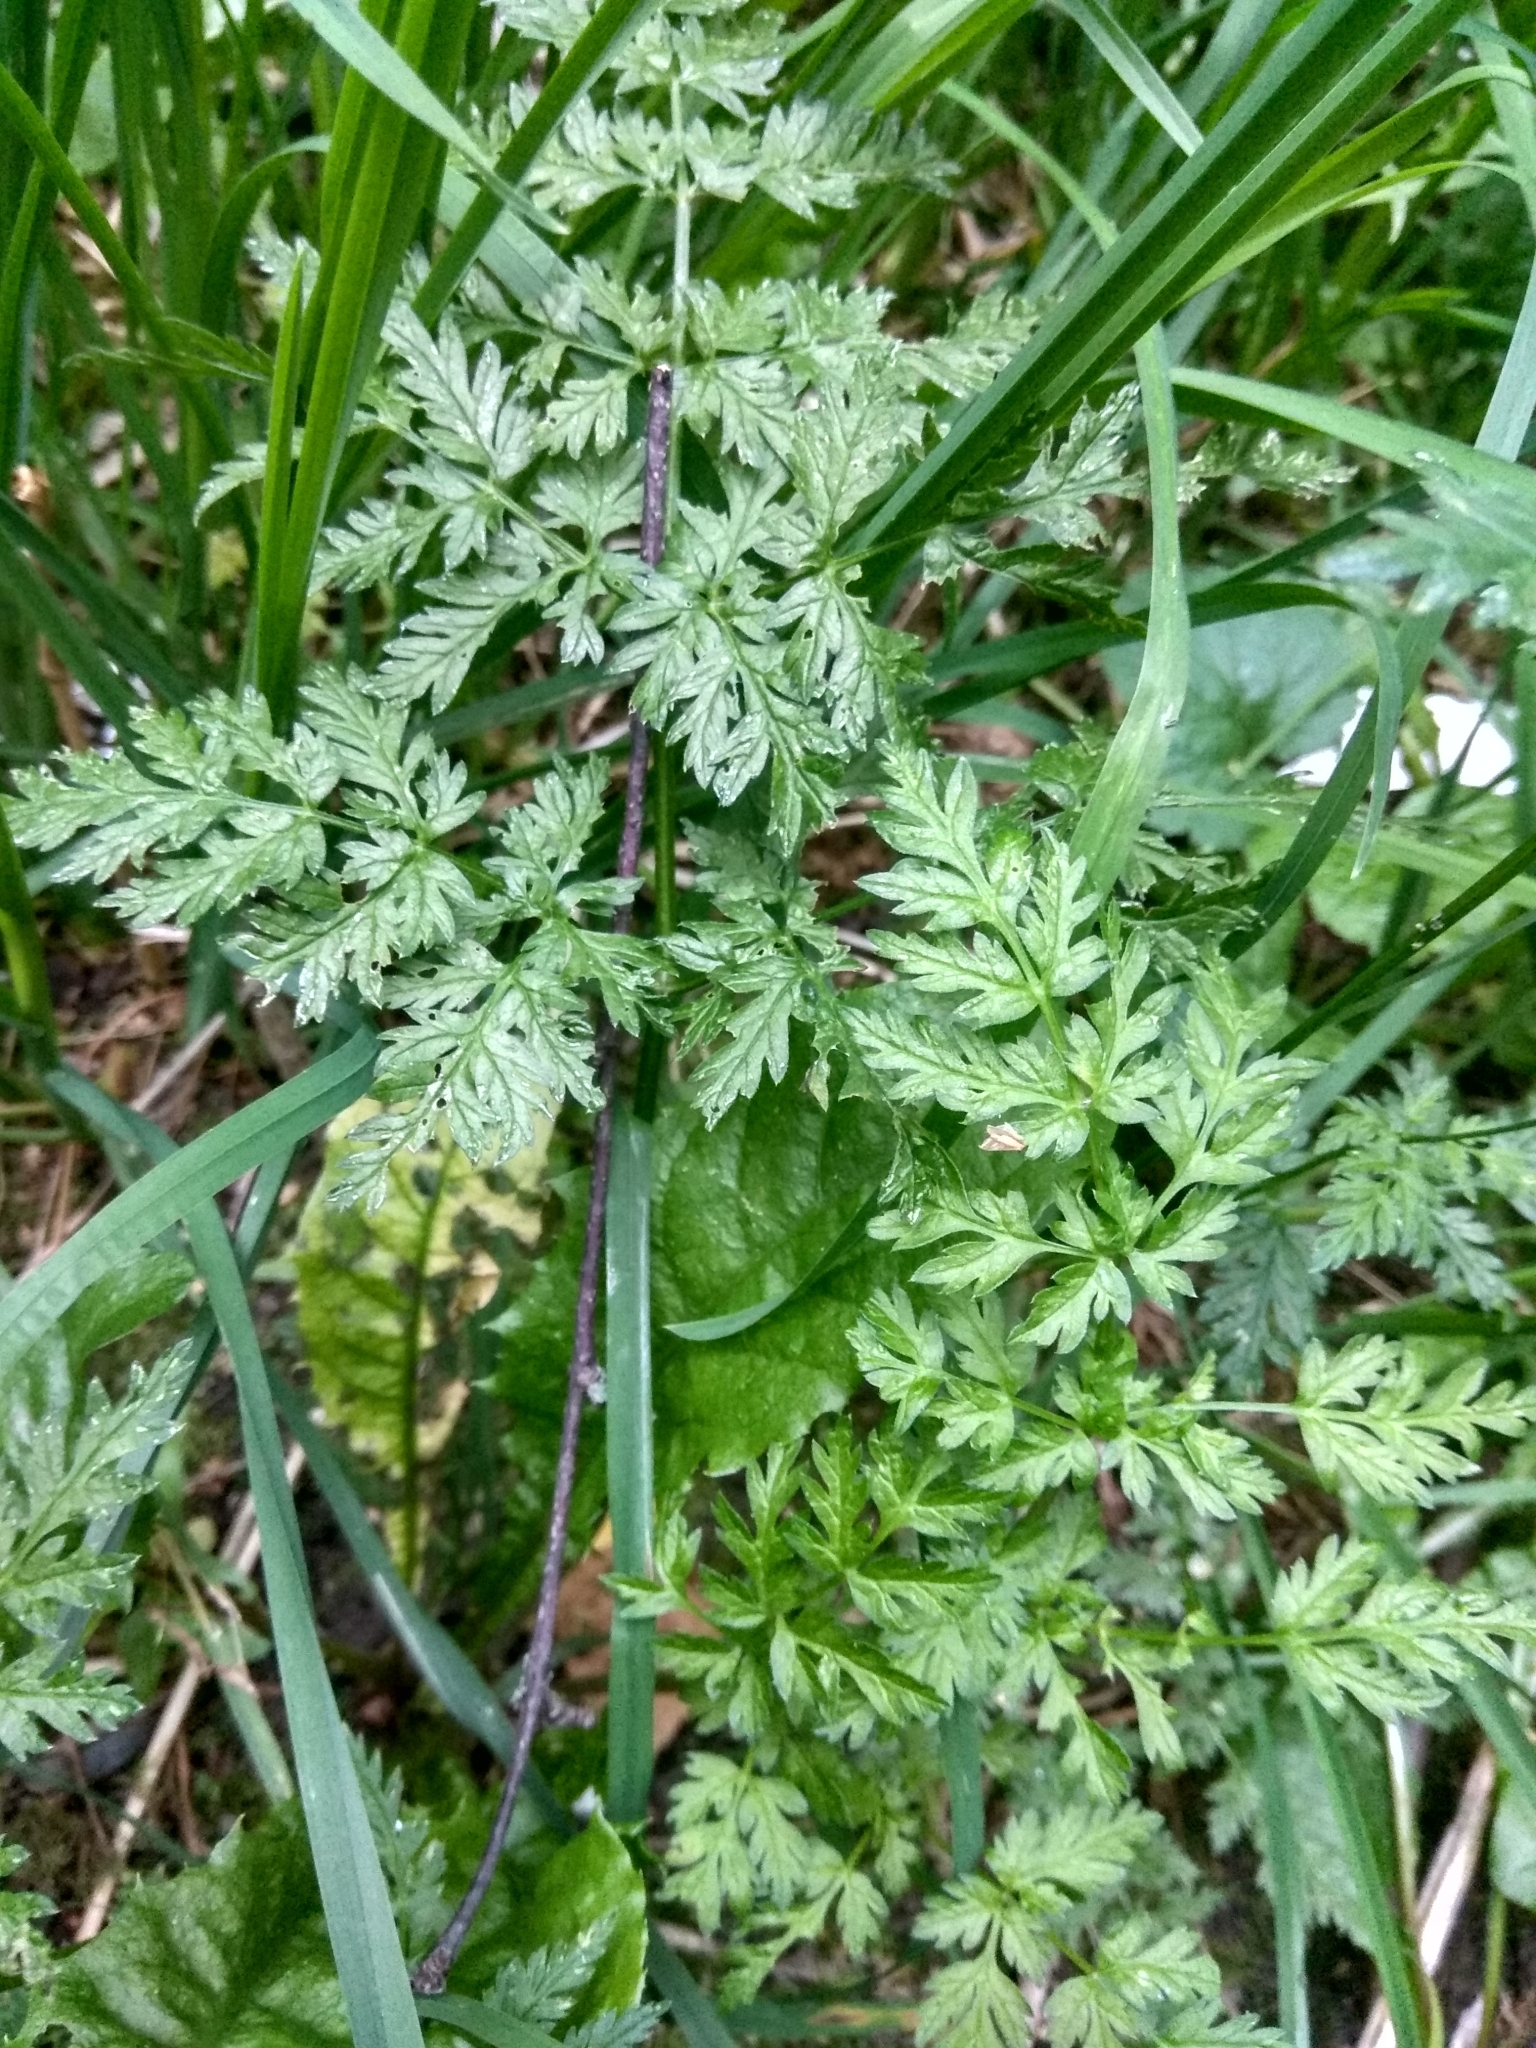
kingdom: Plantae
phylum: Tracheophyta
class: Magnoliopsida
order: Apiales
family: Apiaceae
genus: Anthriscus
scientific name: Anthriscus sylvestris
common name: Cow parsley
